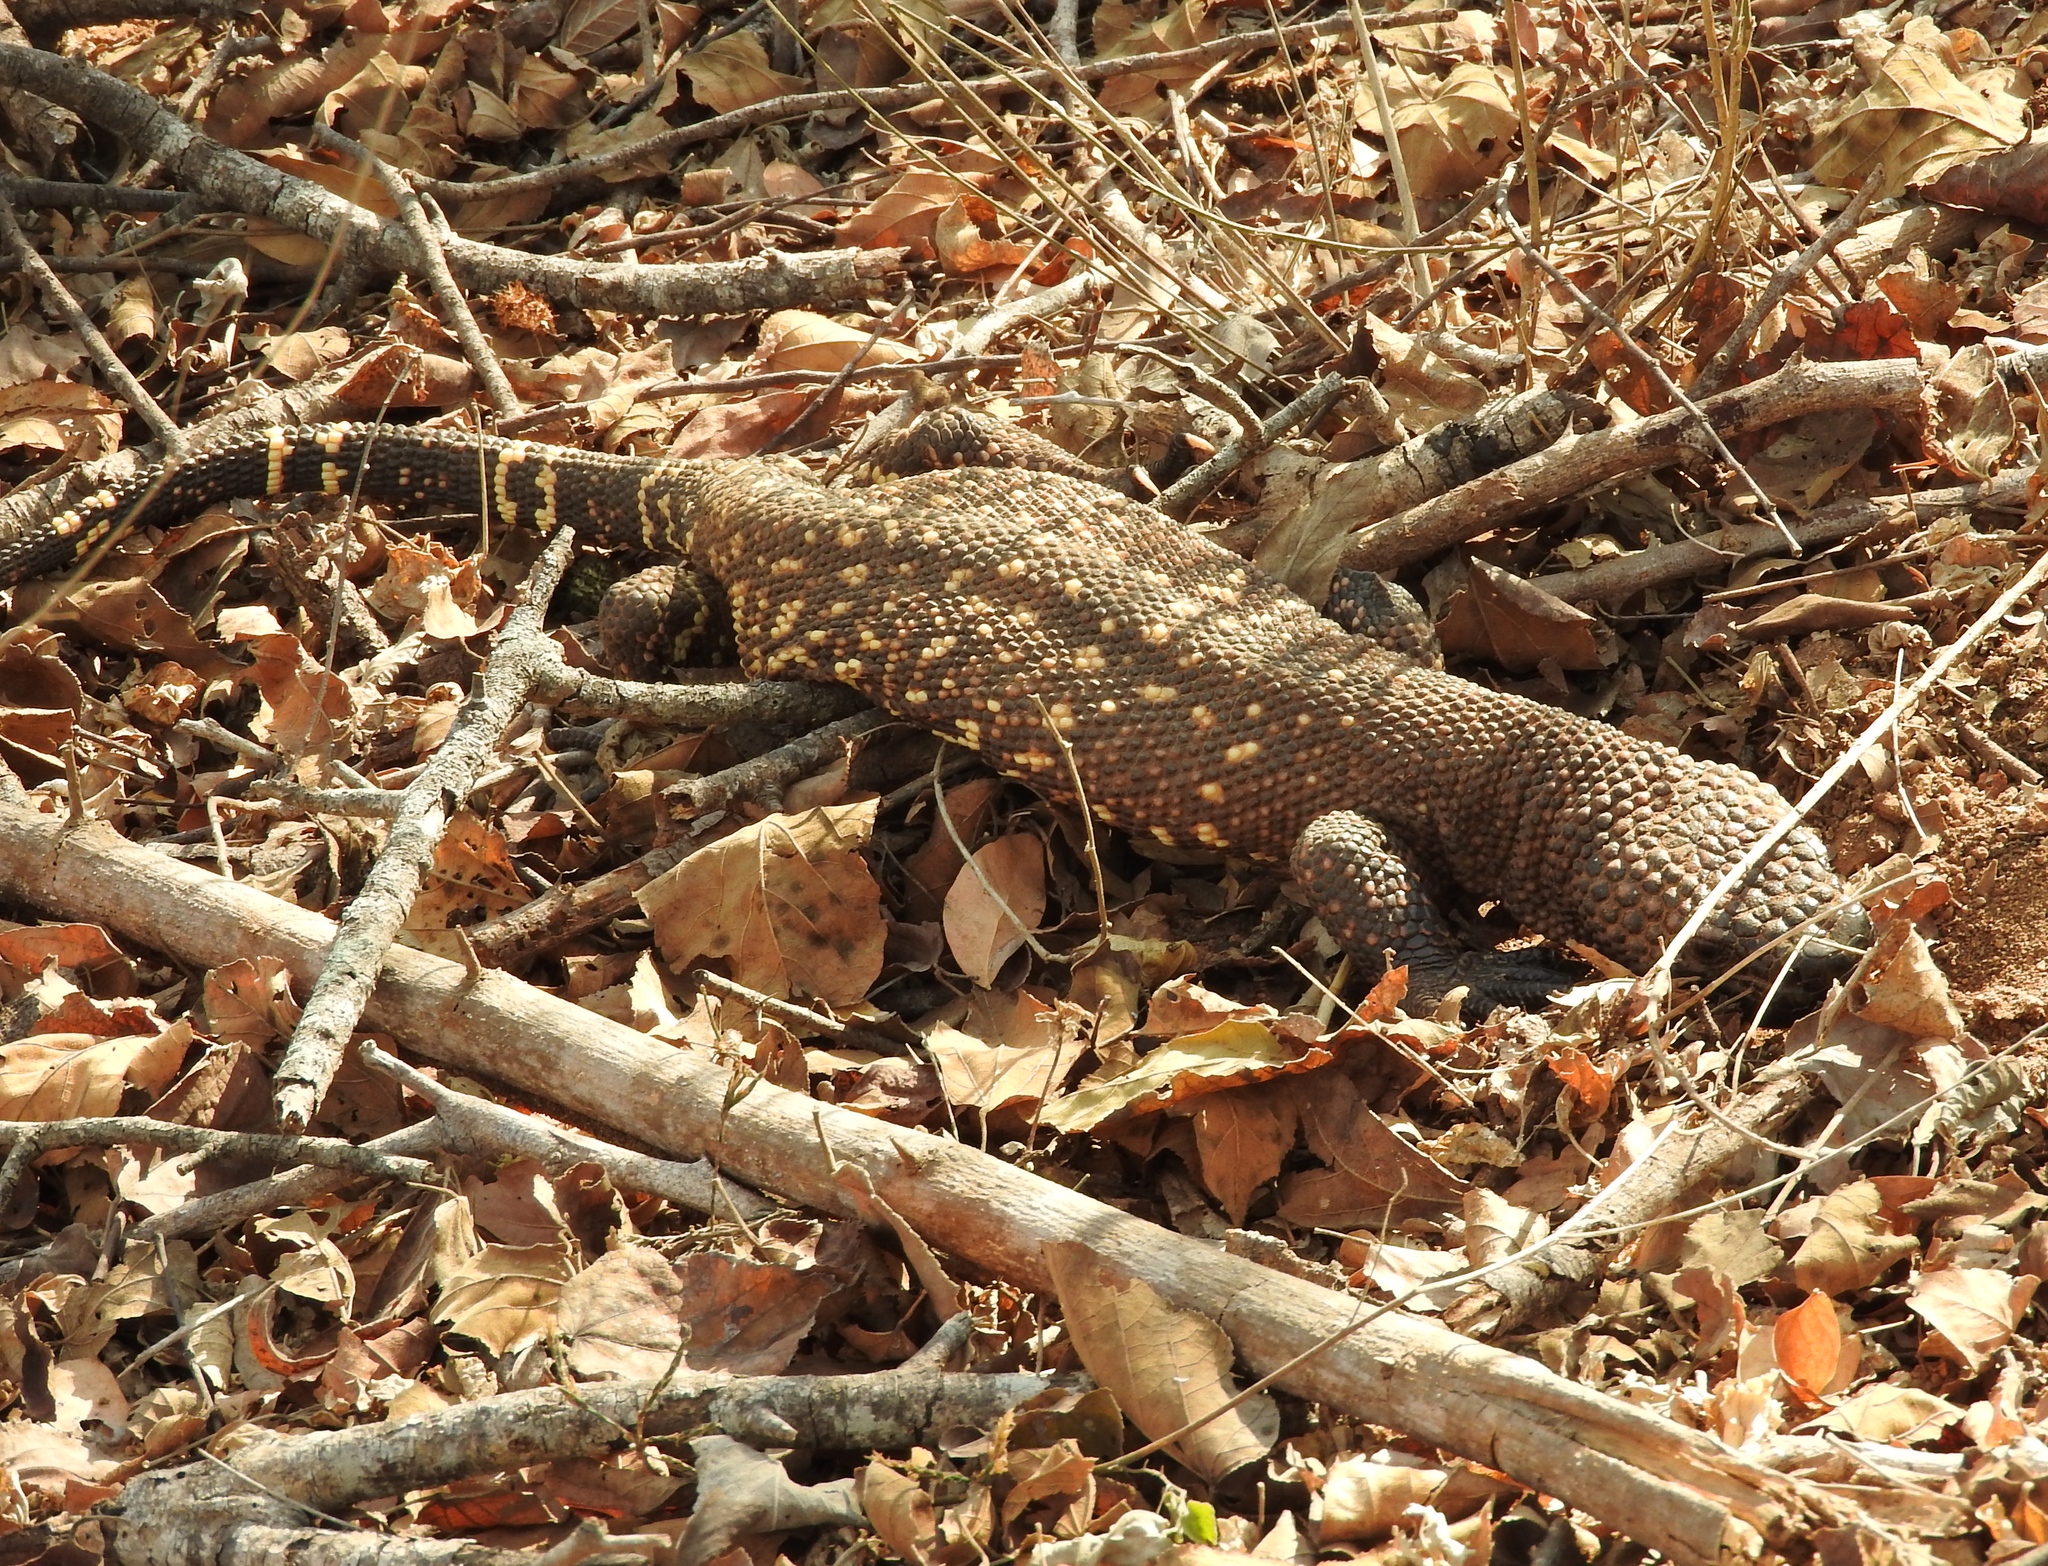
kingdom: Animalia
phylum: Chordata
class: Squamata
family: Helodermatidae
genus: Heloderma
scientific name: Heloderma horridum
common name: Mexican beaded lizard
